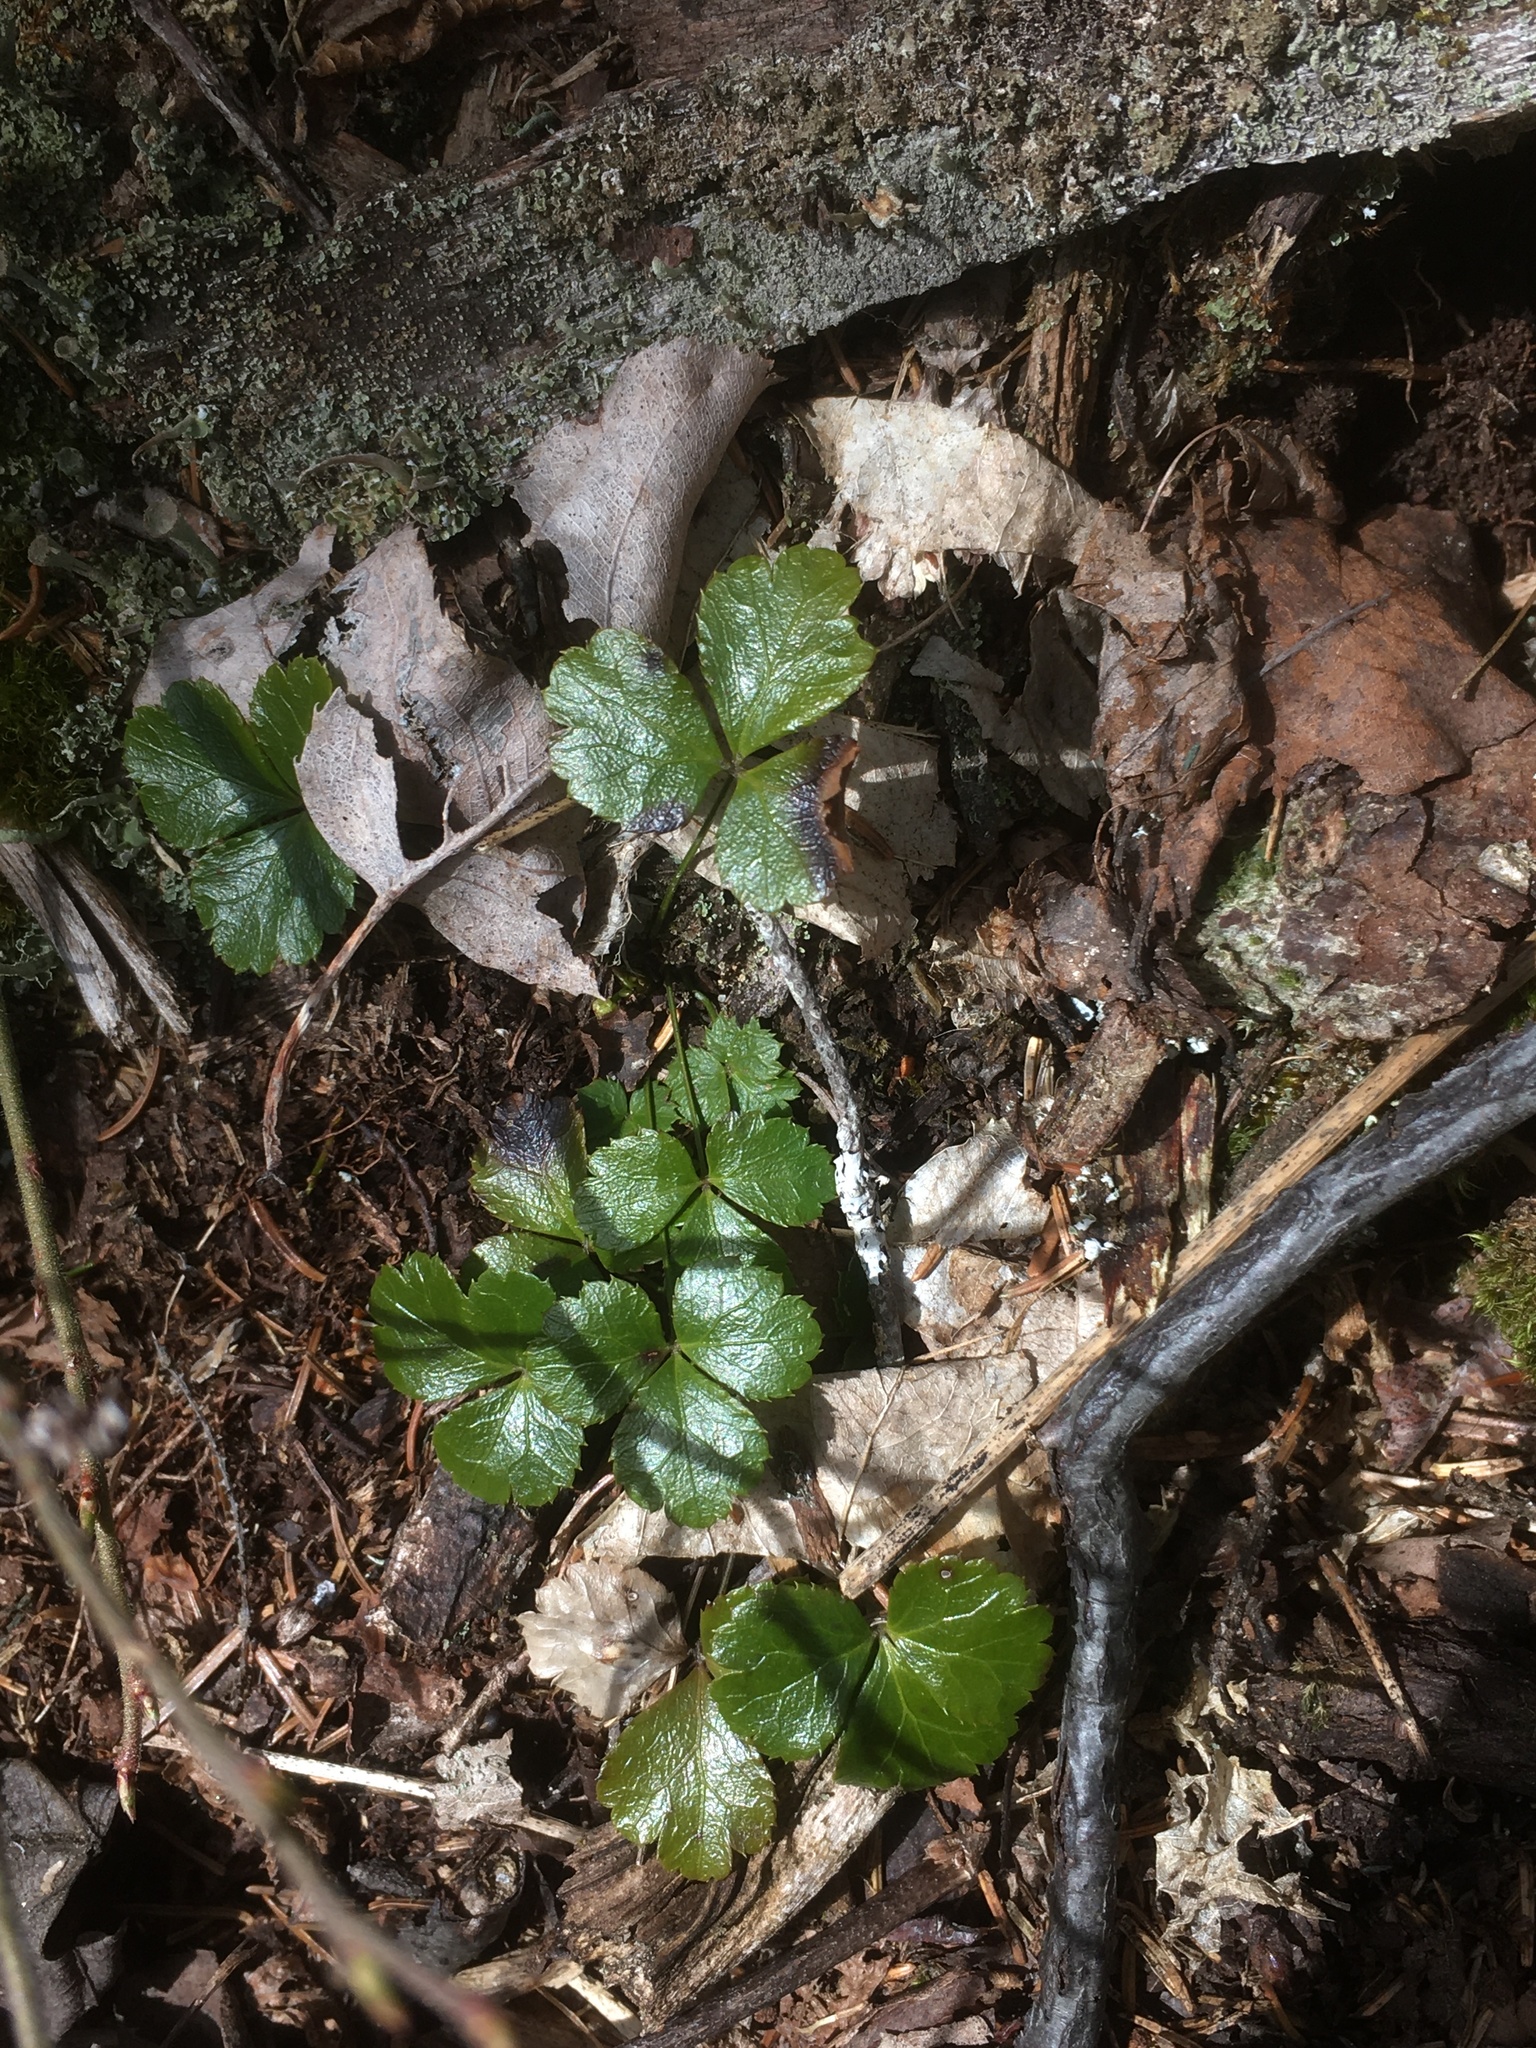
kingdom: Plantae
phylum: Tracheophyta
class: Magnoliopsida
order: Ranunculales
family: Ranunculaceae
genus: Coptis
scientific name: Coptis trifolia
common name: Canker-root
